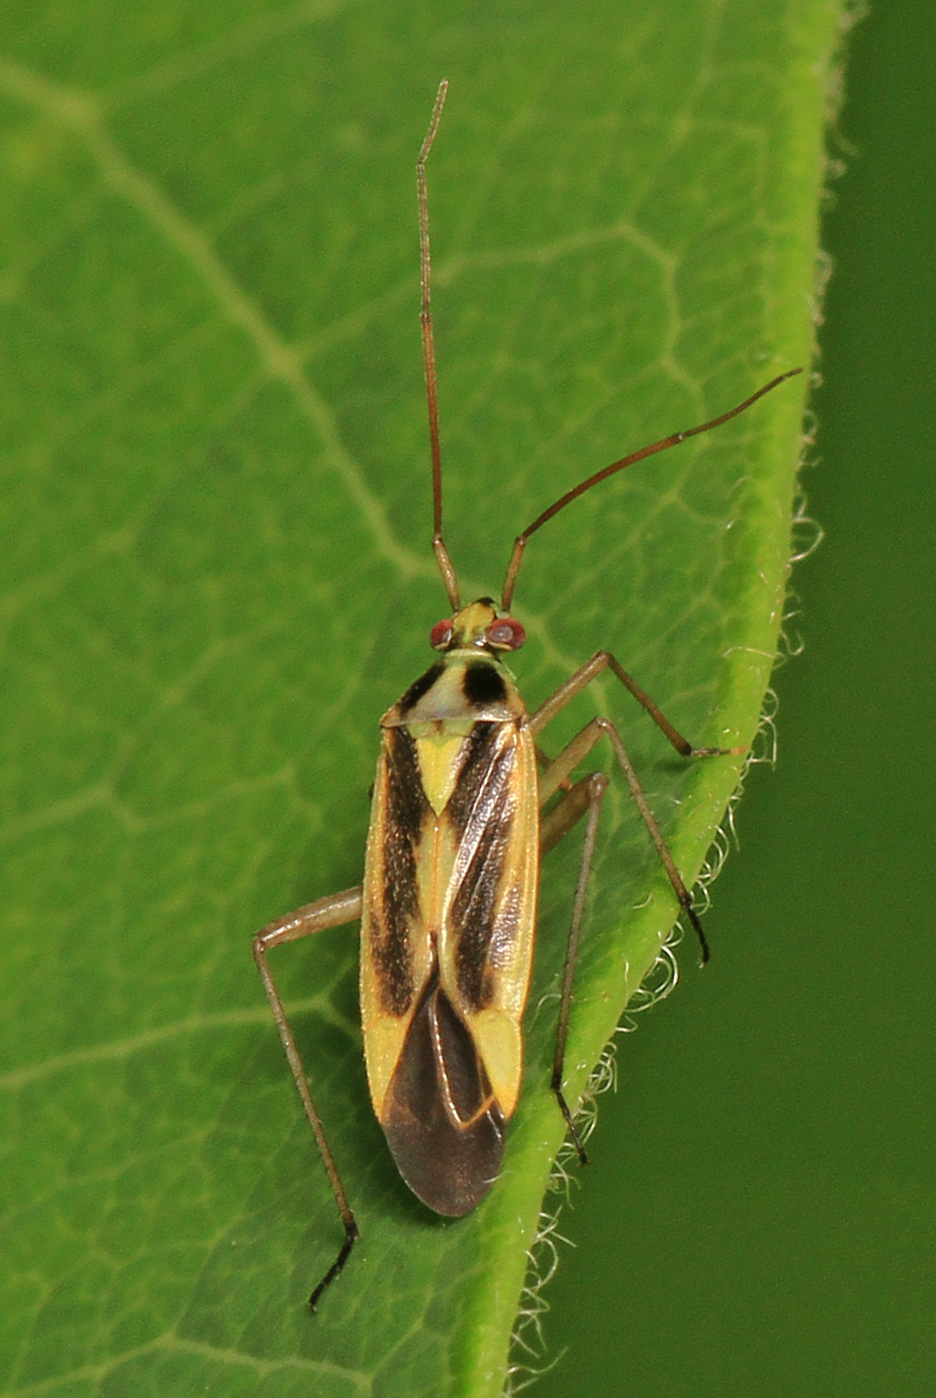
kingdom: Animalia
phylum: Arthropoda
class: Insecta
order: Hemiptera
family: Miridae
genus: Stenotus
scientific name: Stenotus binotatus
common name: Plant bug
